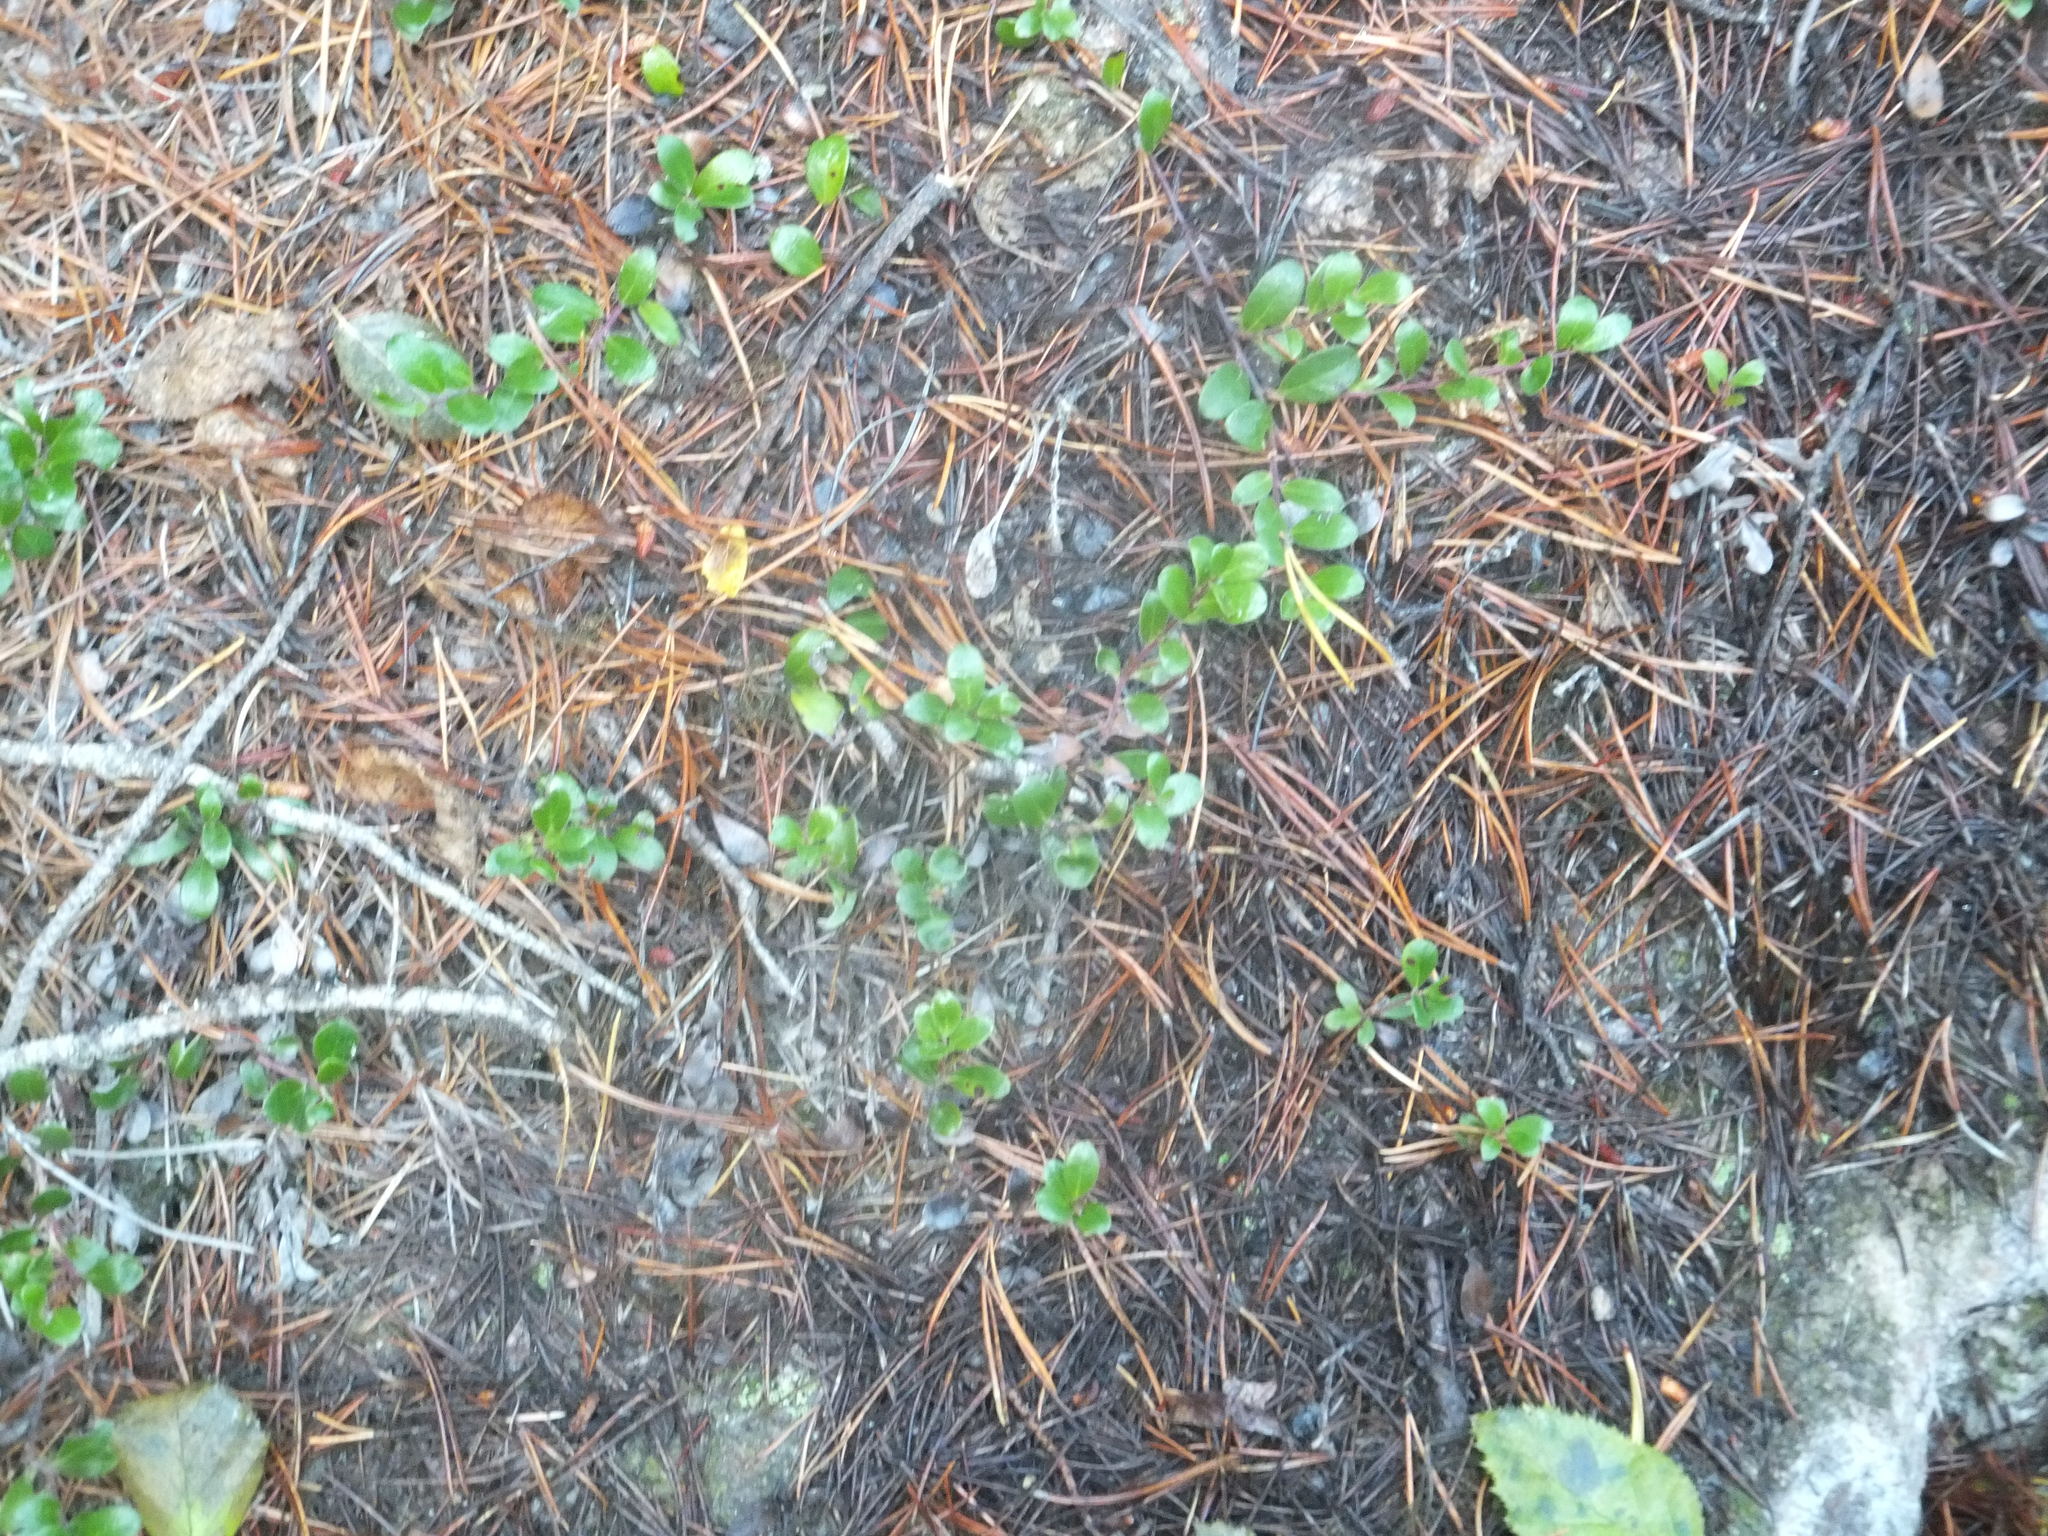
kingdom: Plantae
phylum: Tracheophyta
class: Magnoliopsida
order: Ericales
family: Ericaceae
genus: Arctostaphylos
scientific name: Arctostaphylos uva-ursi
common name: Bearberry
